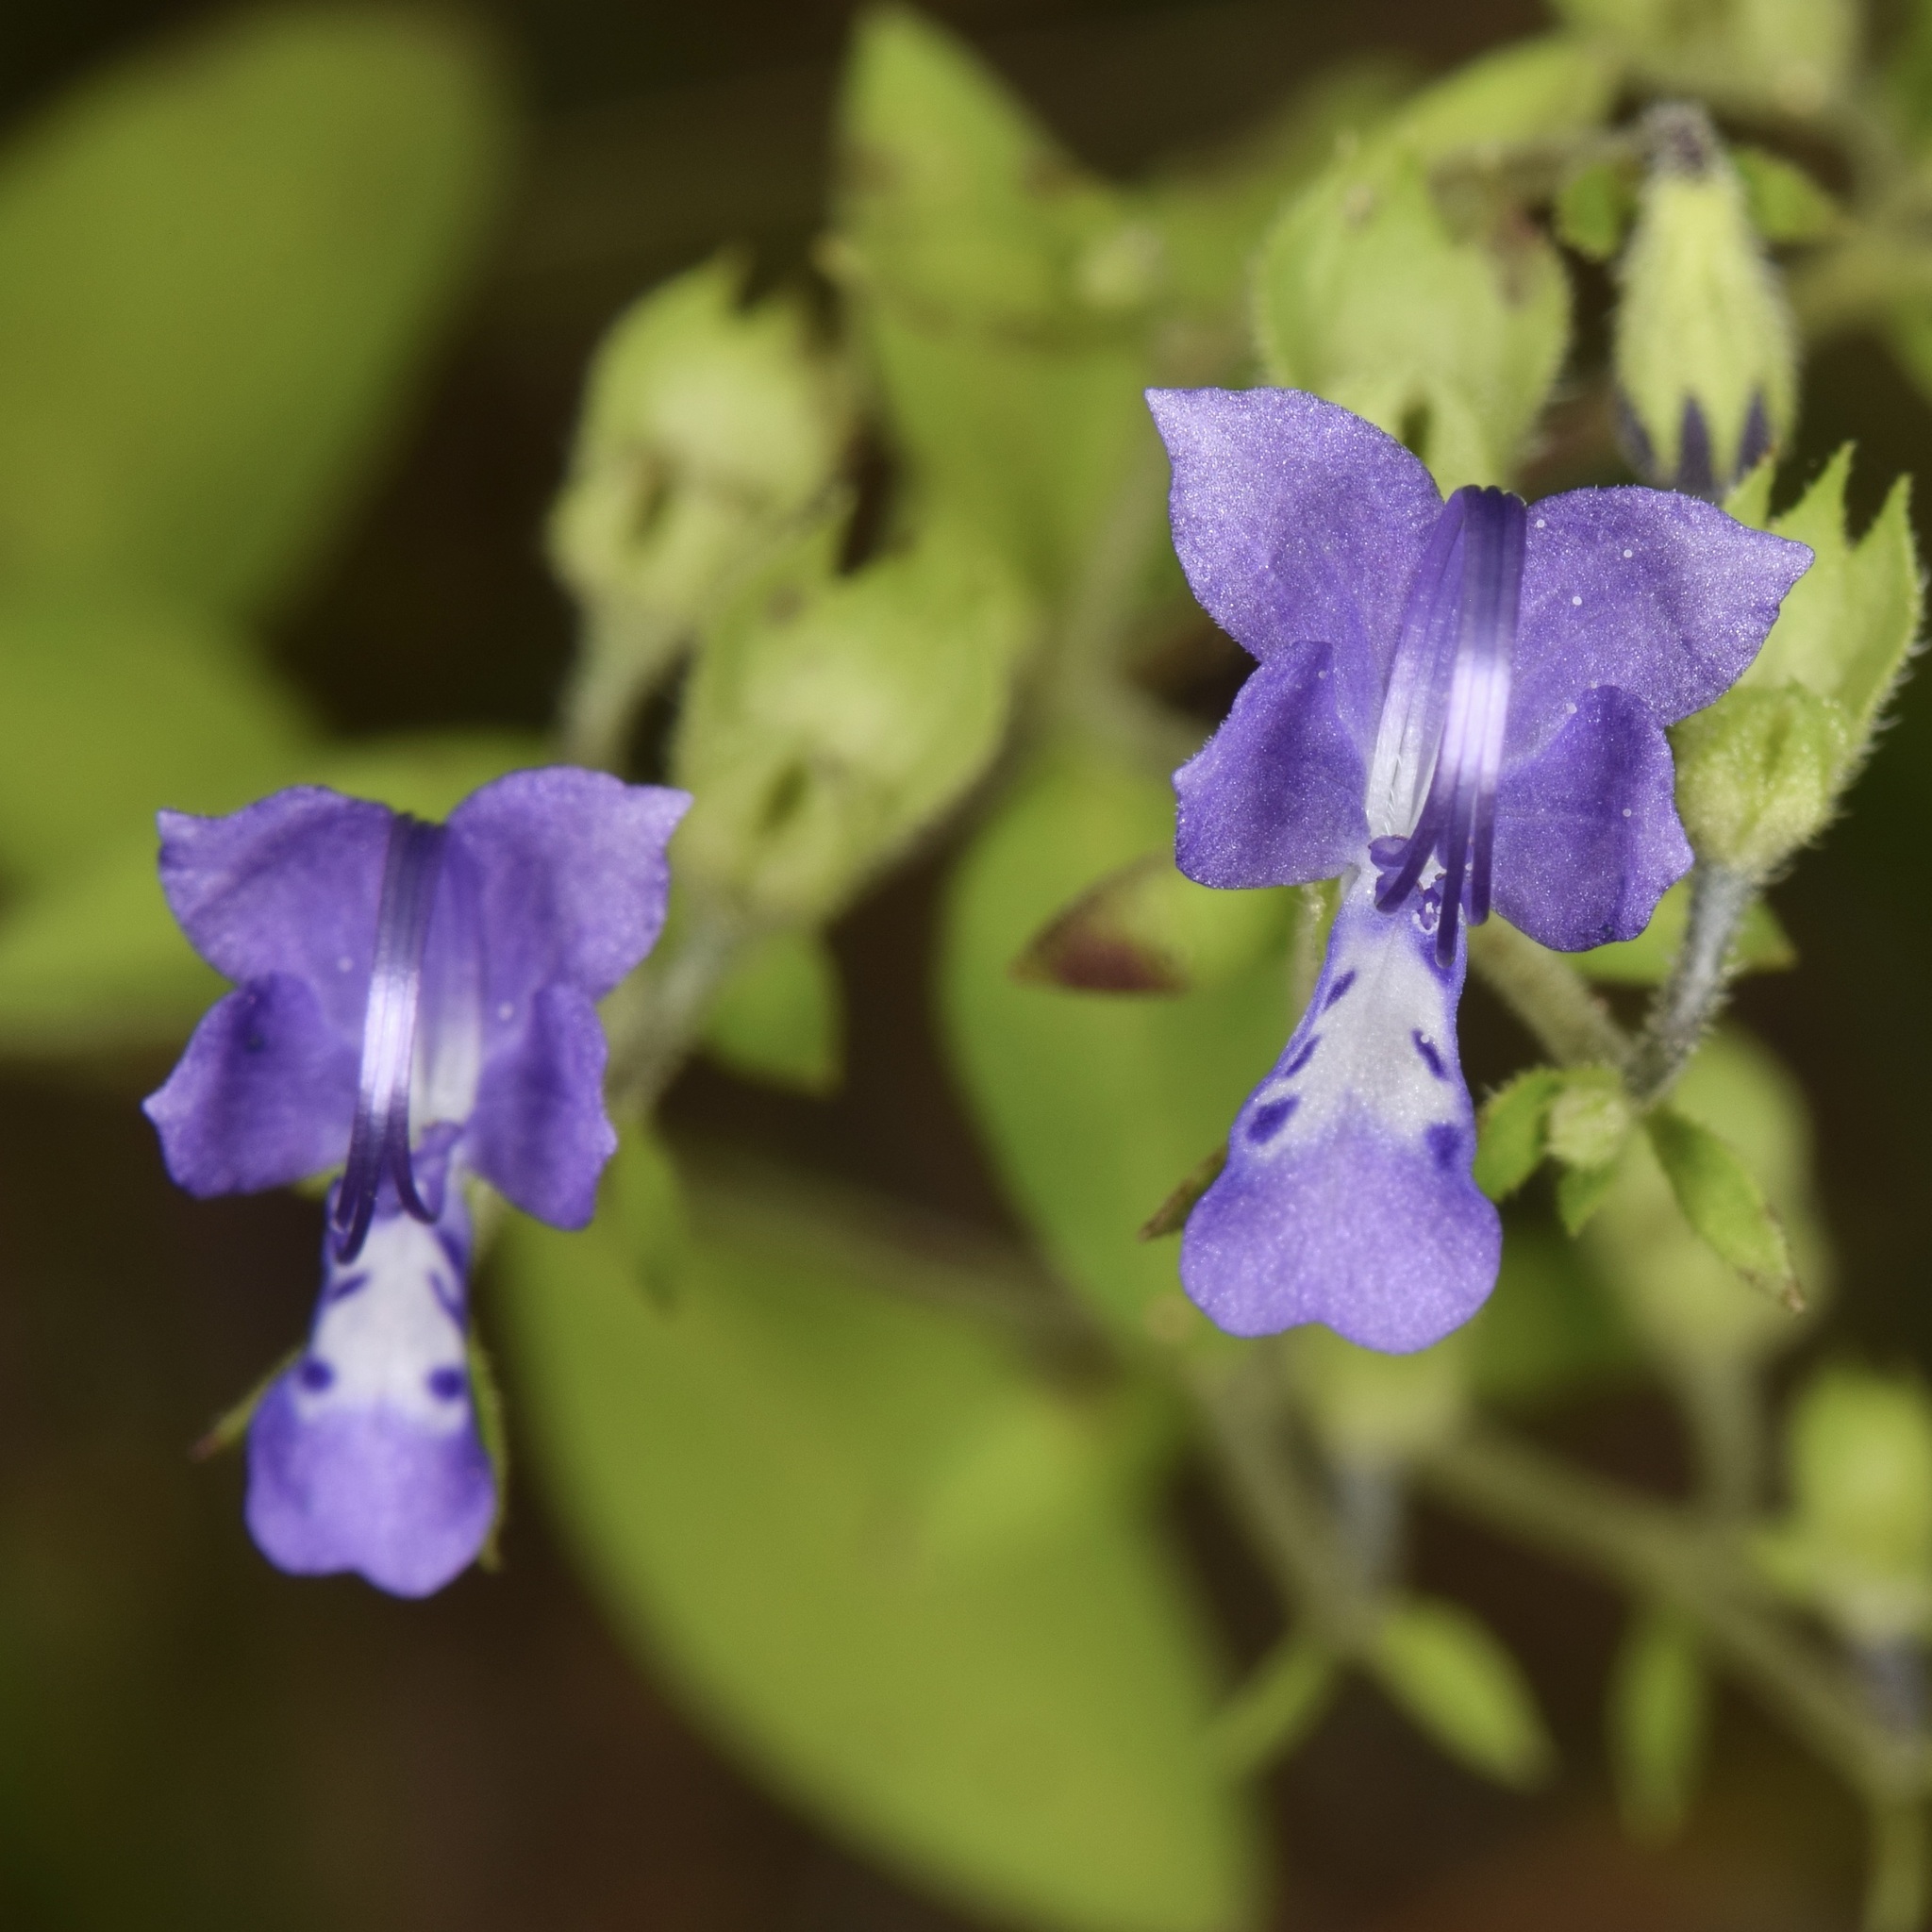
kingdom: Plantae
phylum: Tracheophyta
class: Magnoliopsida
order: Lamiales
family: Lamiaceae
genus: Trichostema
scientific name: Trichostema dichotomum
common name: Bastard pennyroyal
